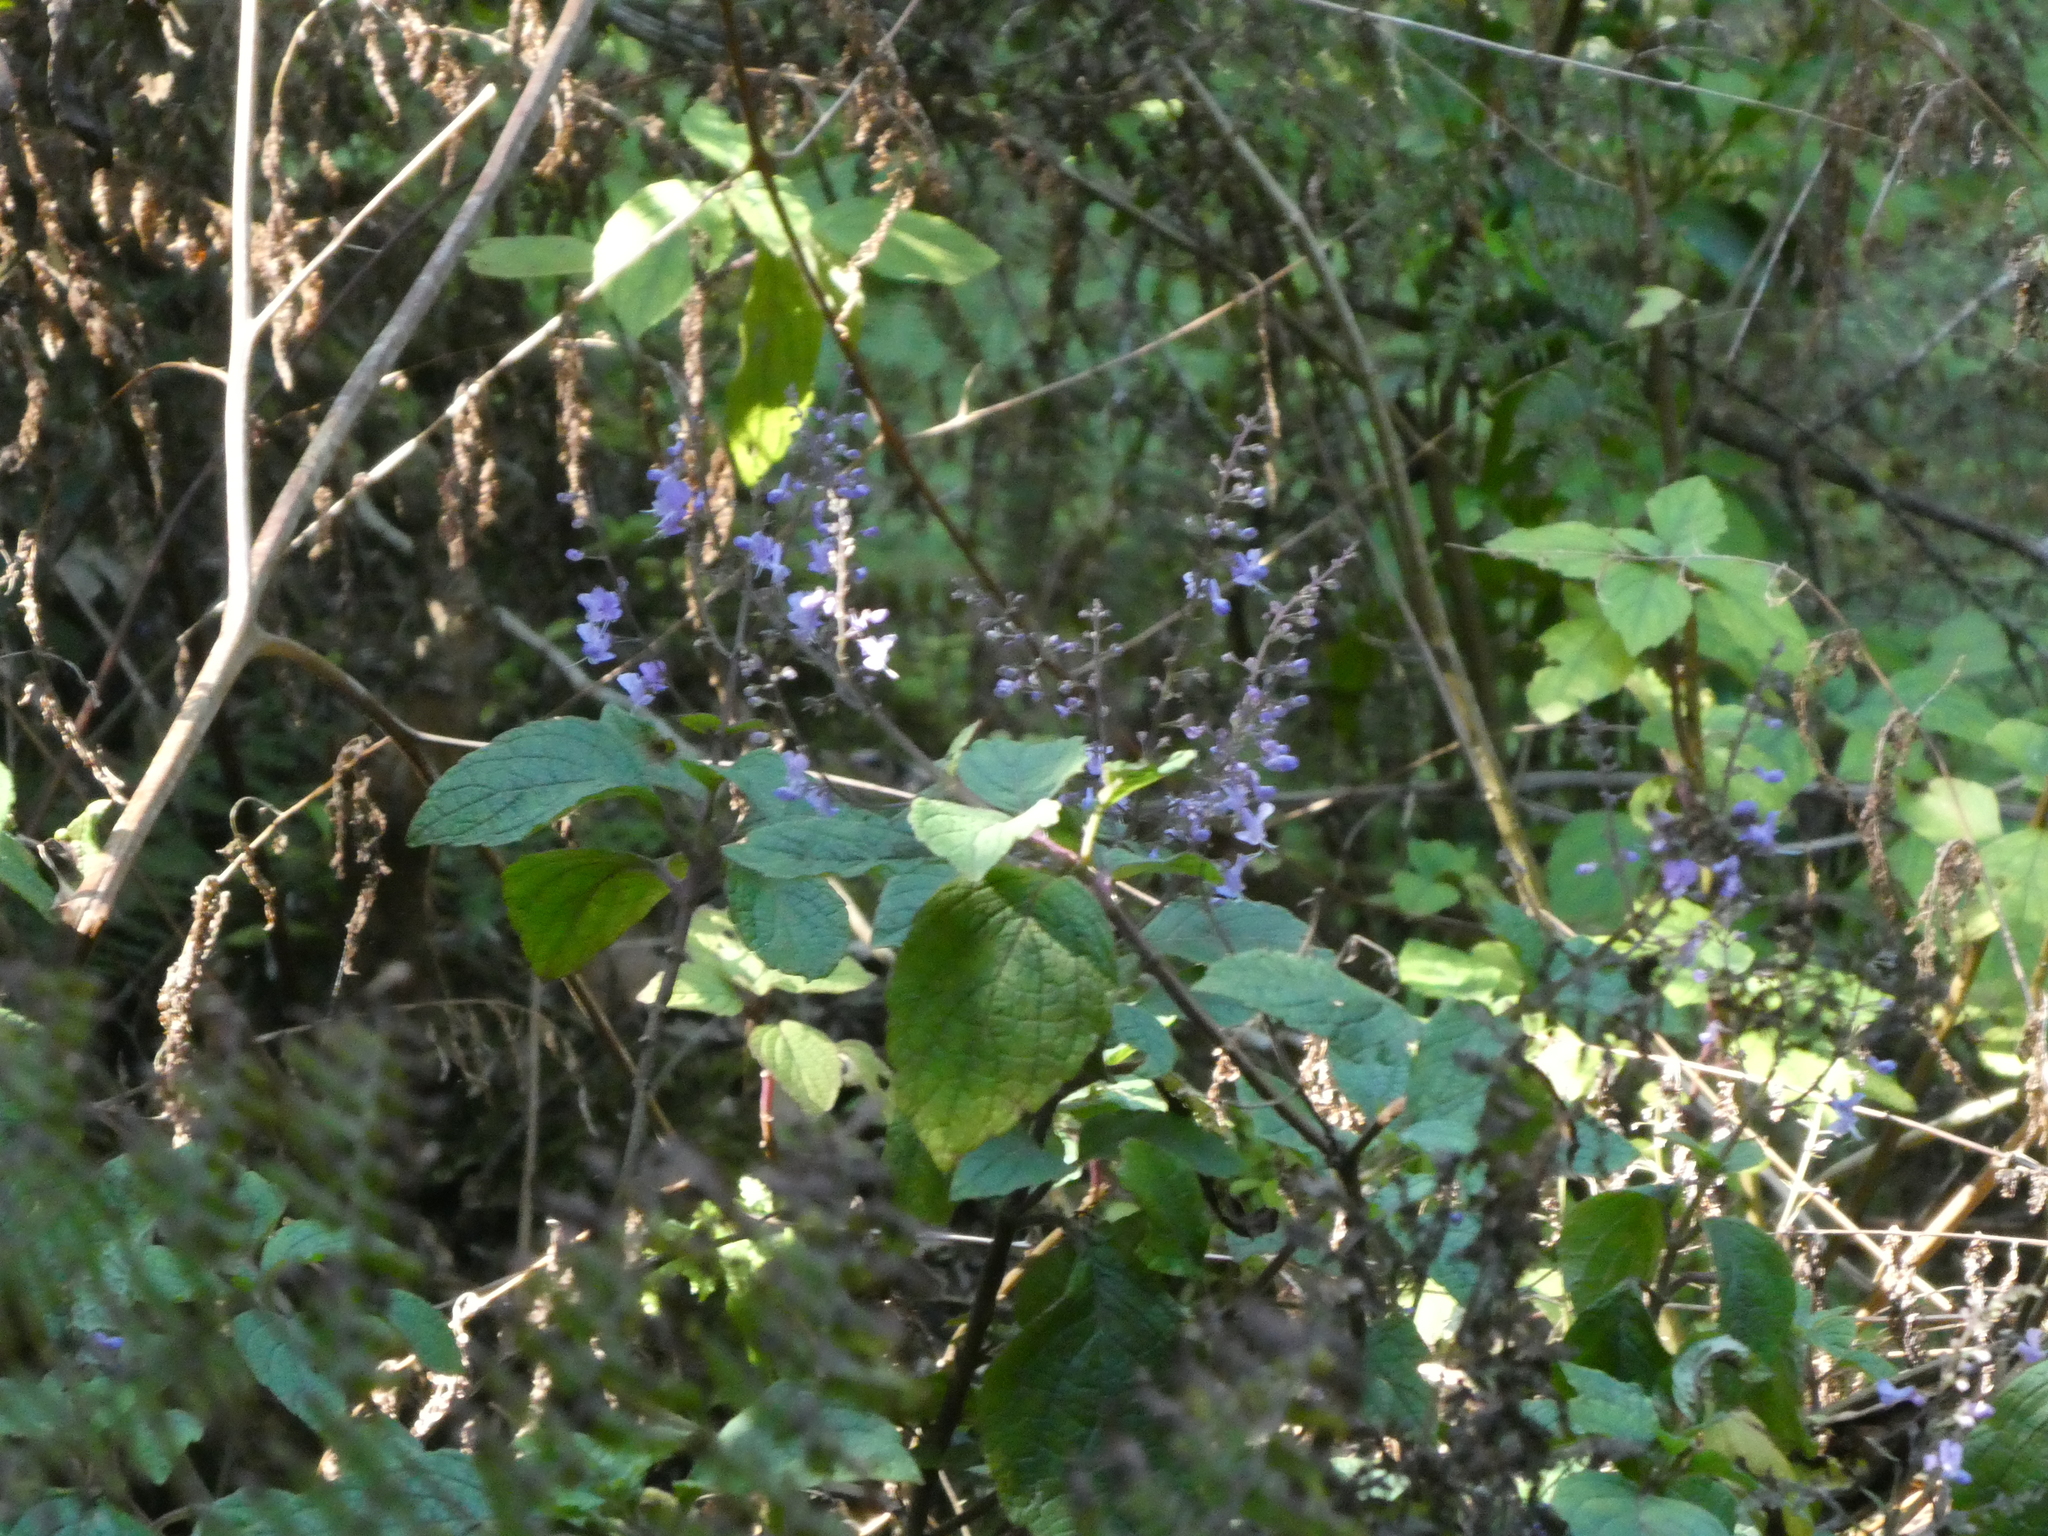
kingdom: Plantae
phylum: Tracheophyta
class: Magnoliopsida
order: Lamiales
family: Lamiaceae
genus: Plectranthus
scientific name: Plectranthus fruticosus
